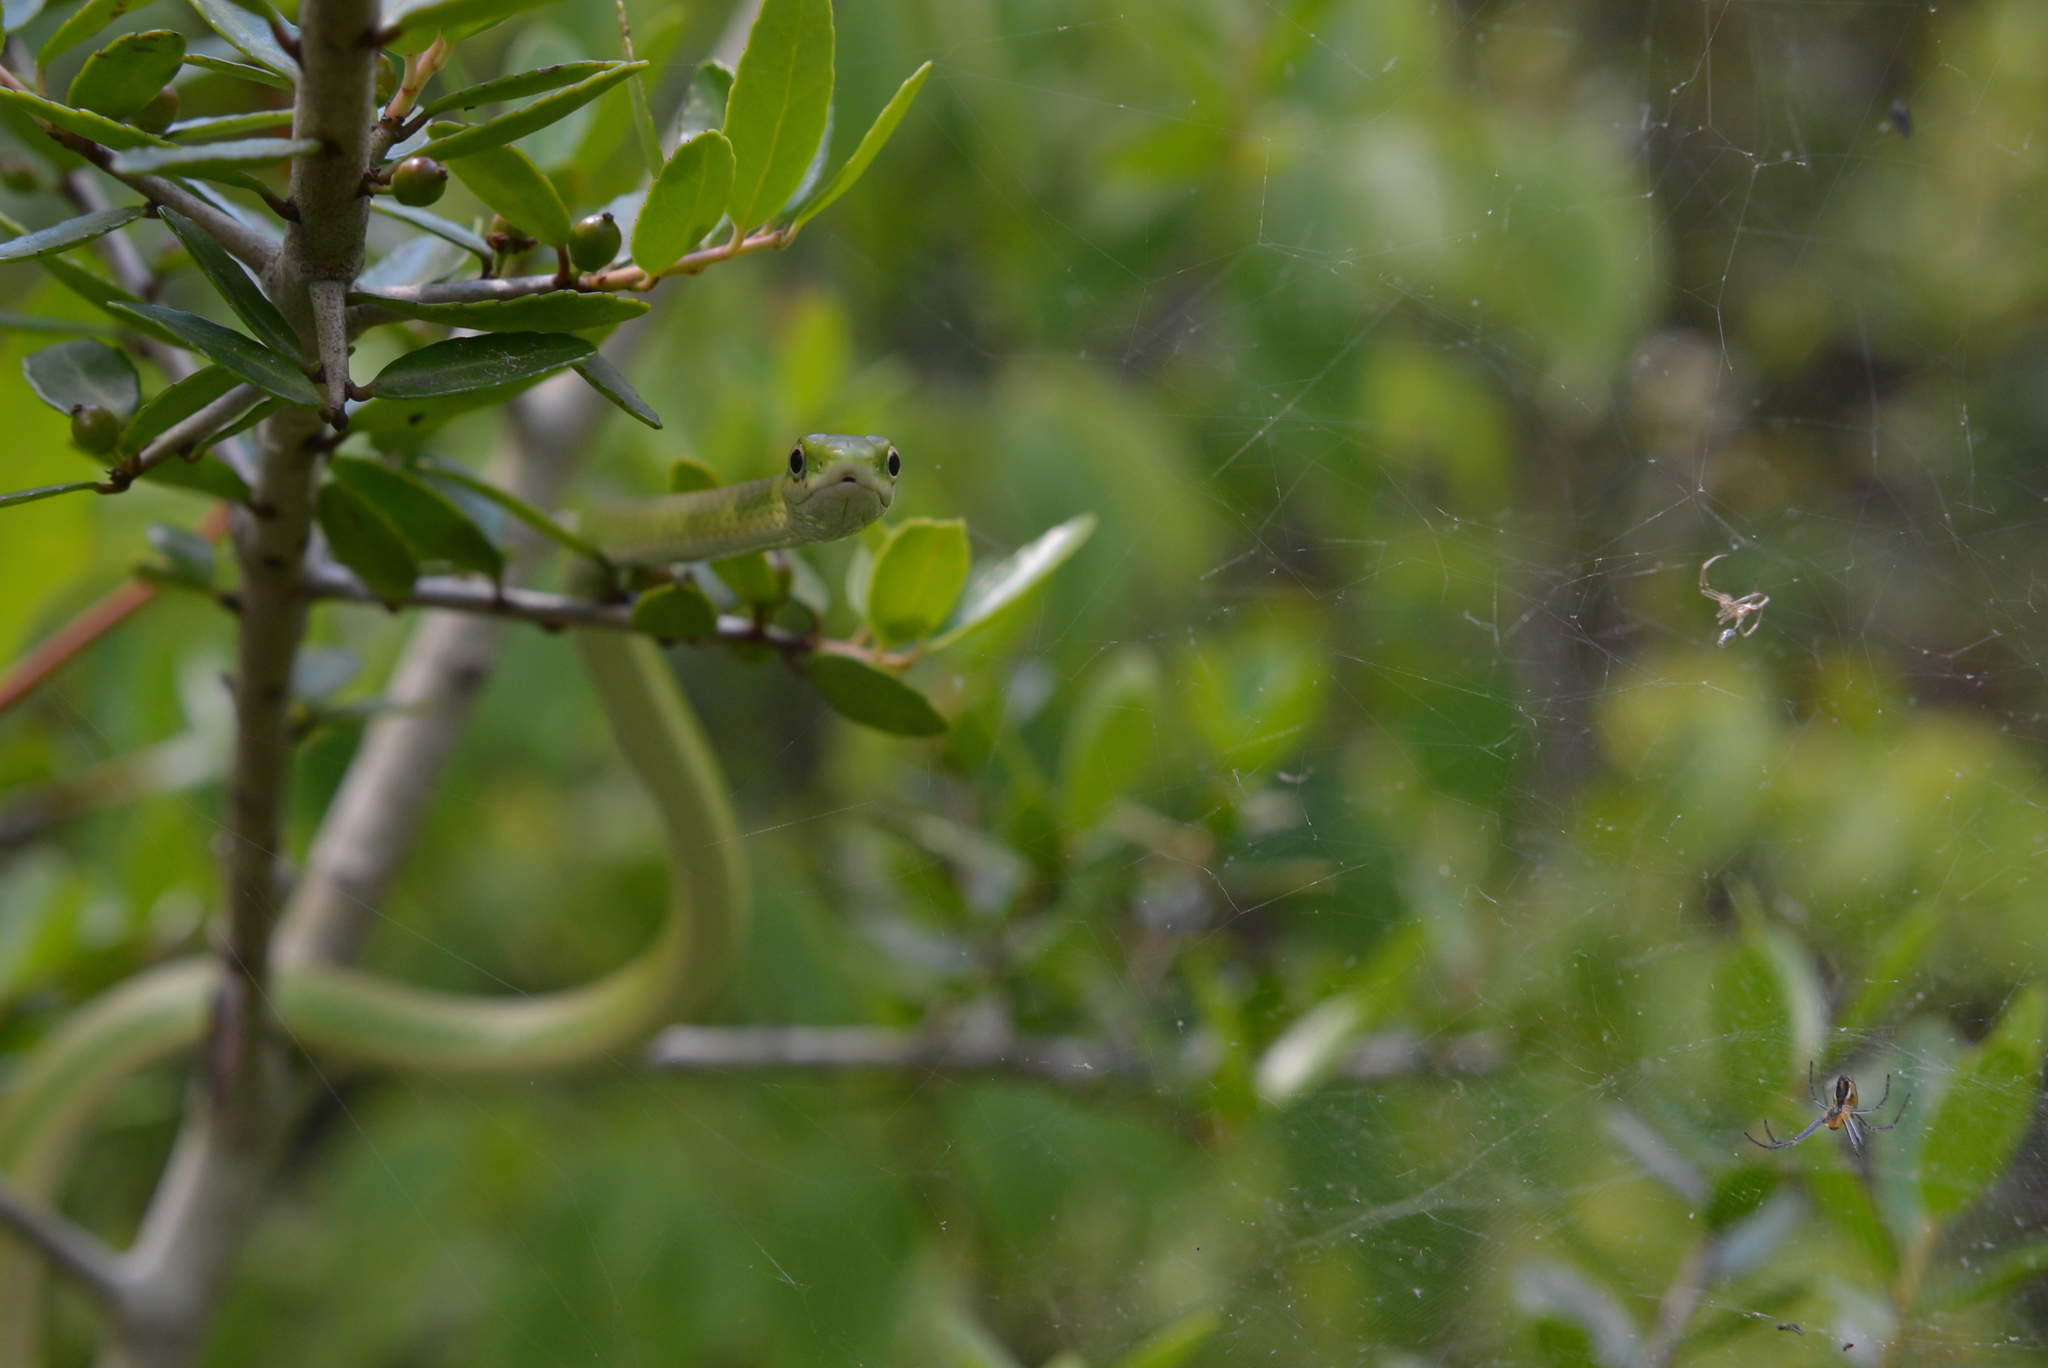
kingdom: Animalia
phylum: Chordata
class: Squamata
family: Colubridae
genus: Opheodrys
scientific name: Opheodrys aestivus
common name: Rough greensnake
